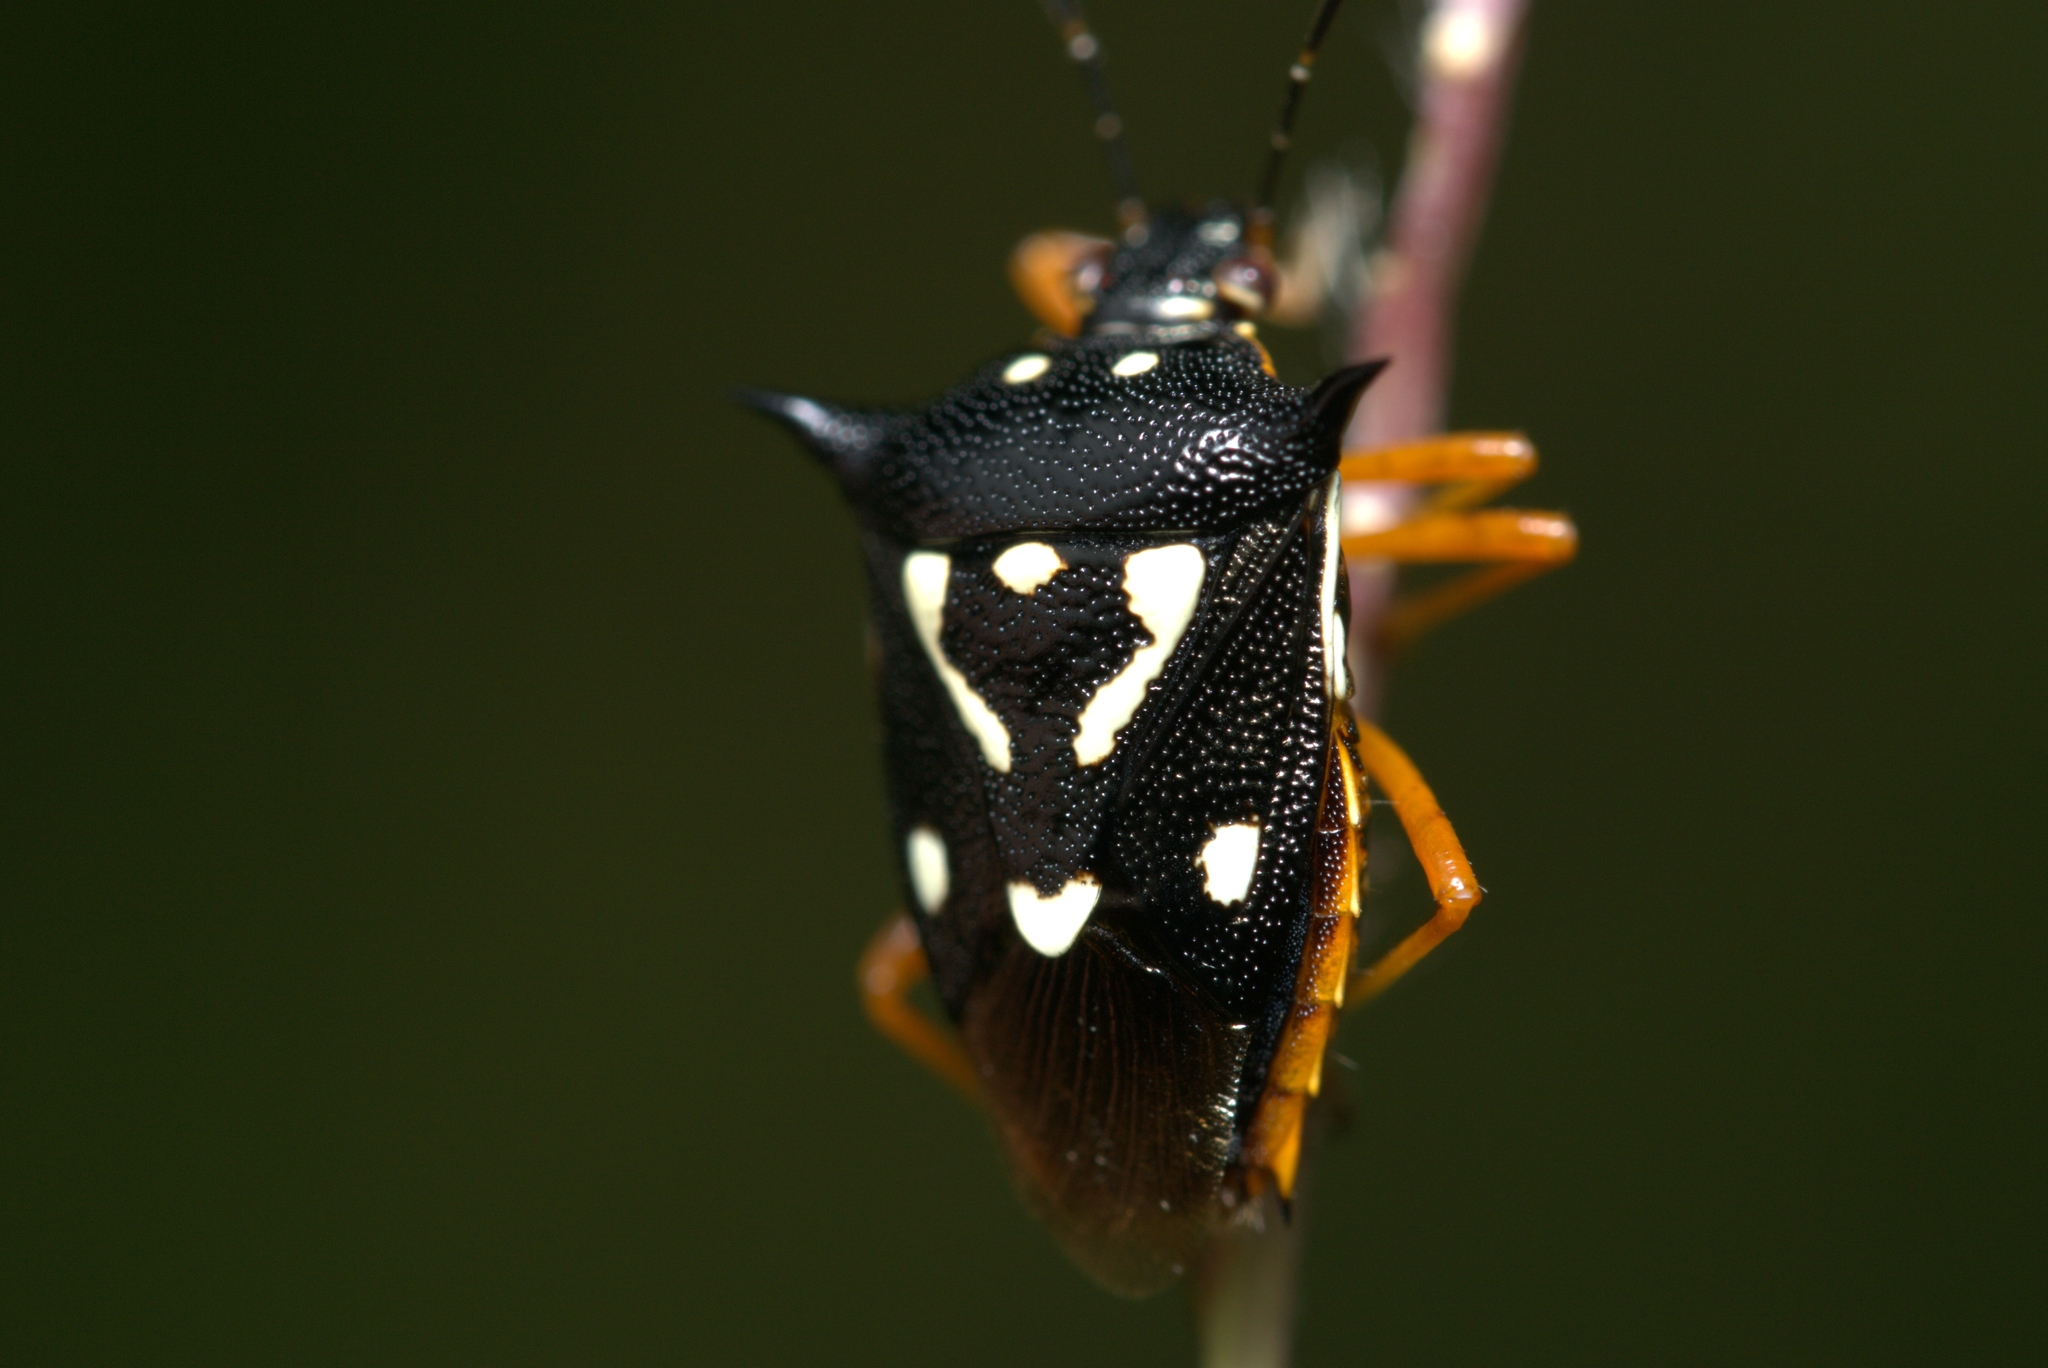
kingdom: Animalia
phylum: Arthropoda
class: Insecta
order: Hemiptera
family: Pentatomidae
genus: Mormidea
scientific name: Mormidea v-luteum
